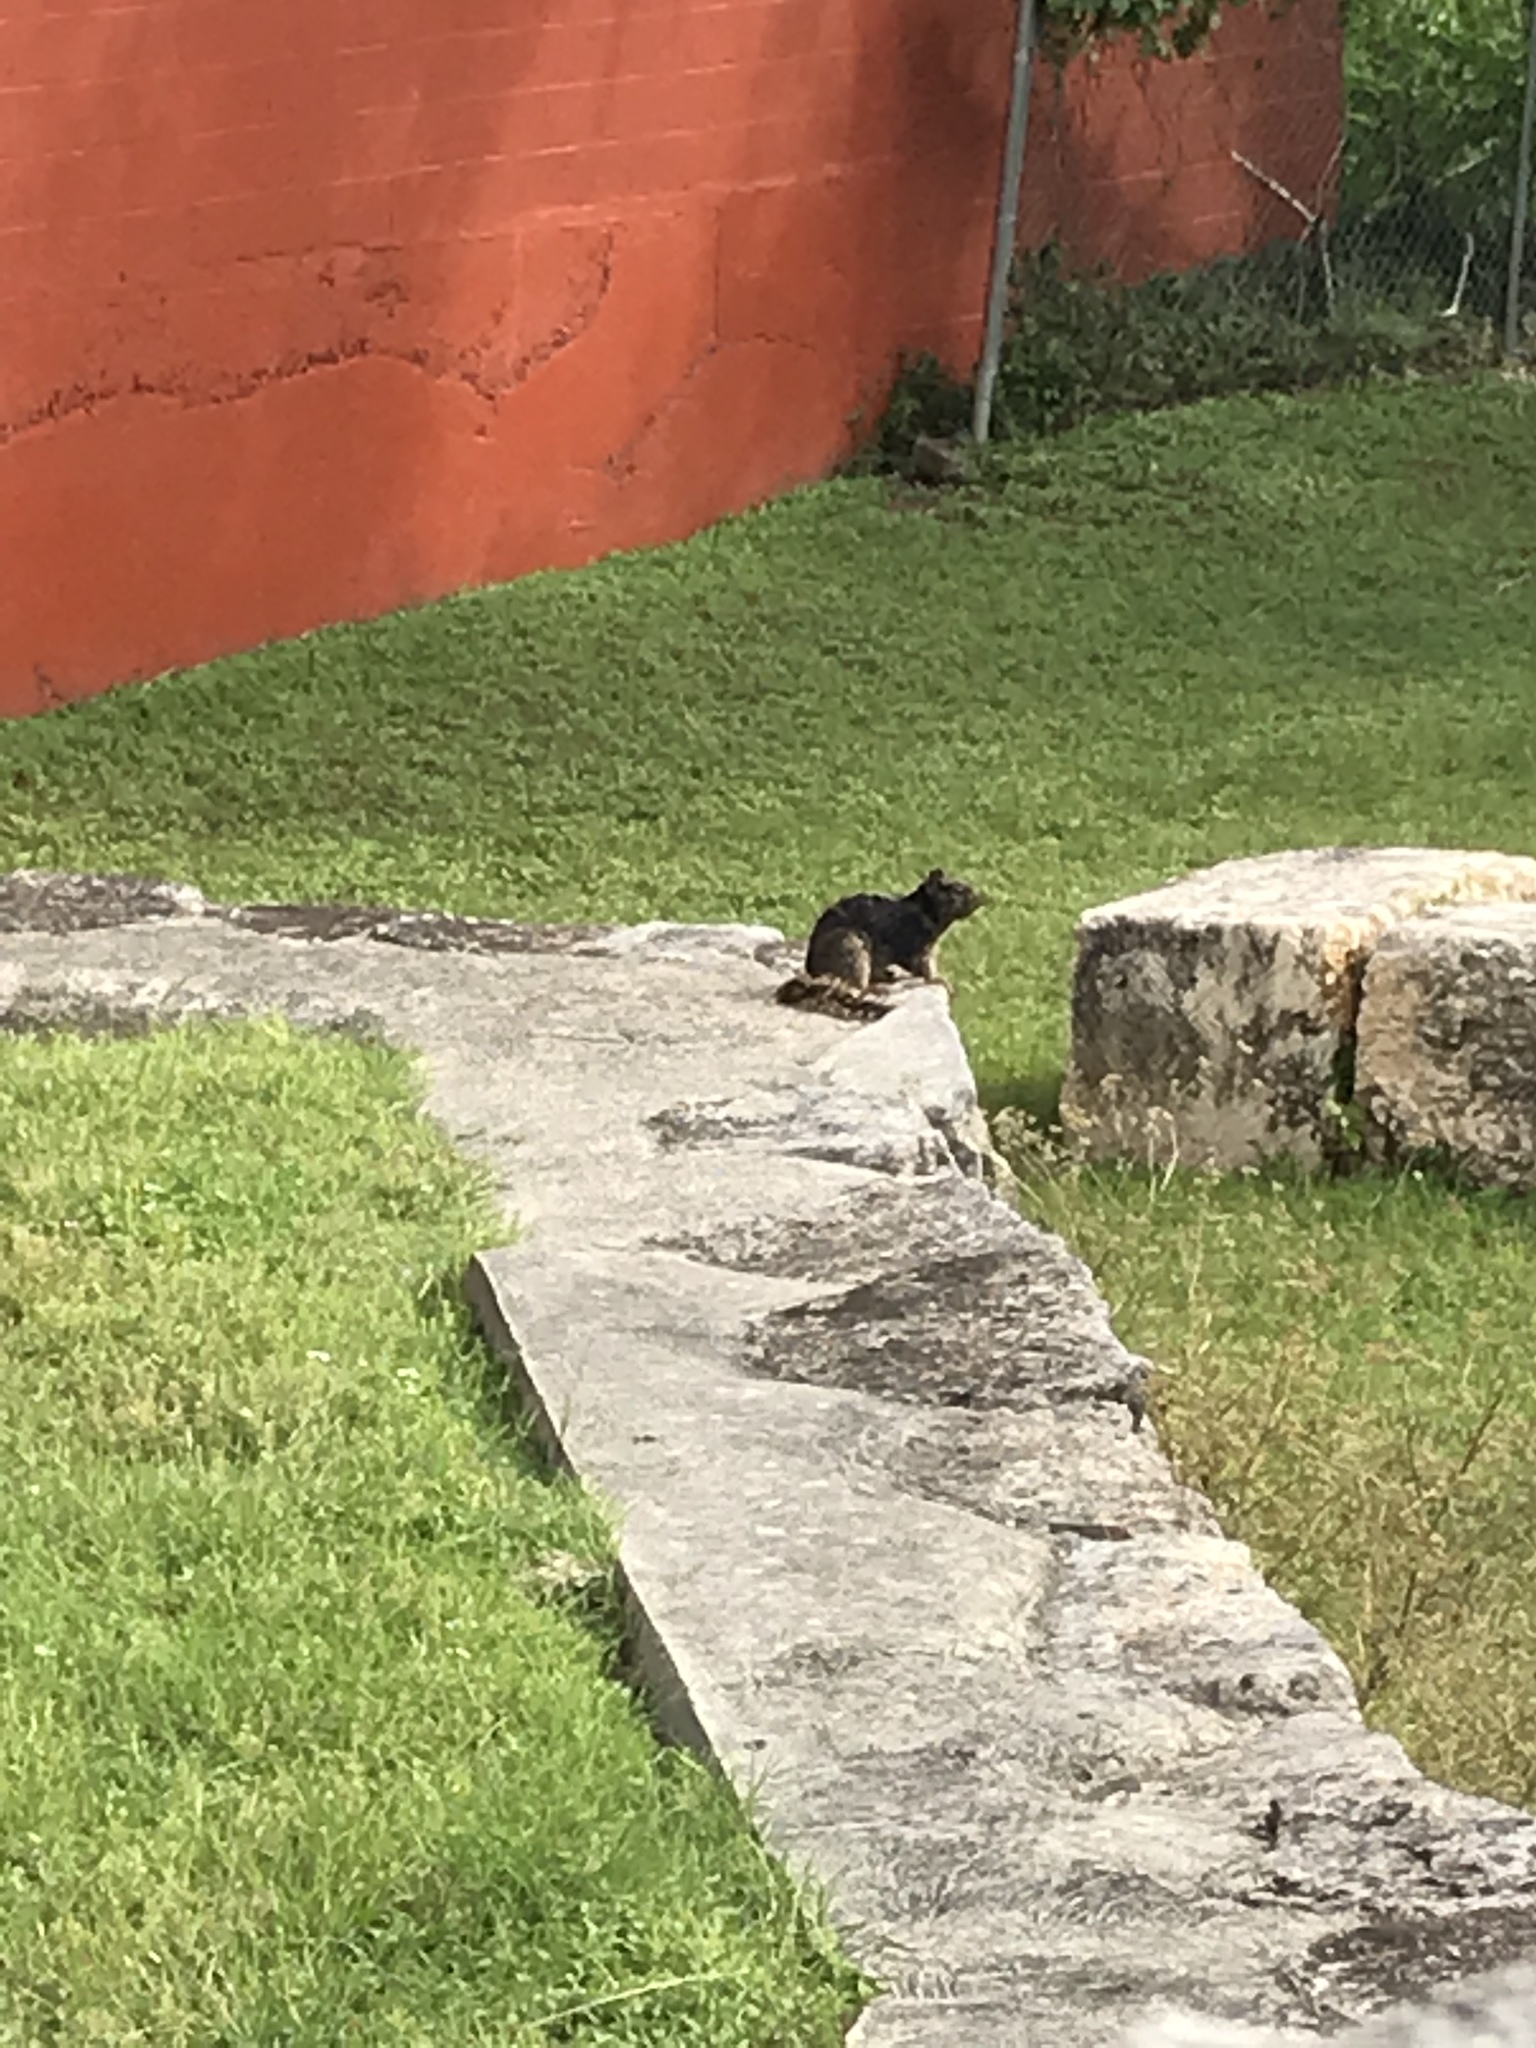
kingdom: Animalia
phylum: Chordata
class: Mammalia
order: Rodentia
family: Sciuridae
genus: Otospermophilus
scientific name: Otospermophilus variegatus
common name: Rock squirrel
